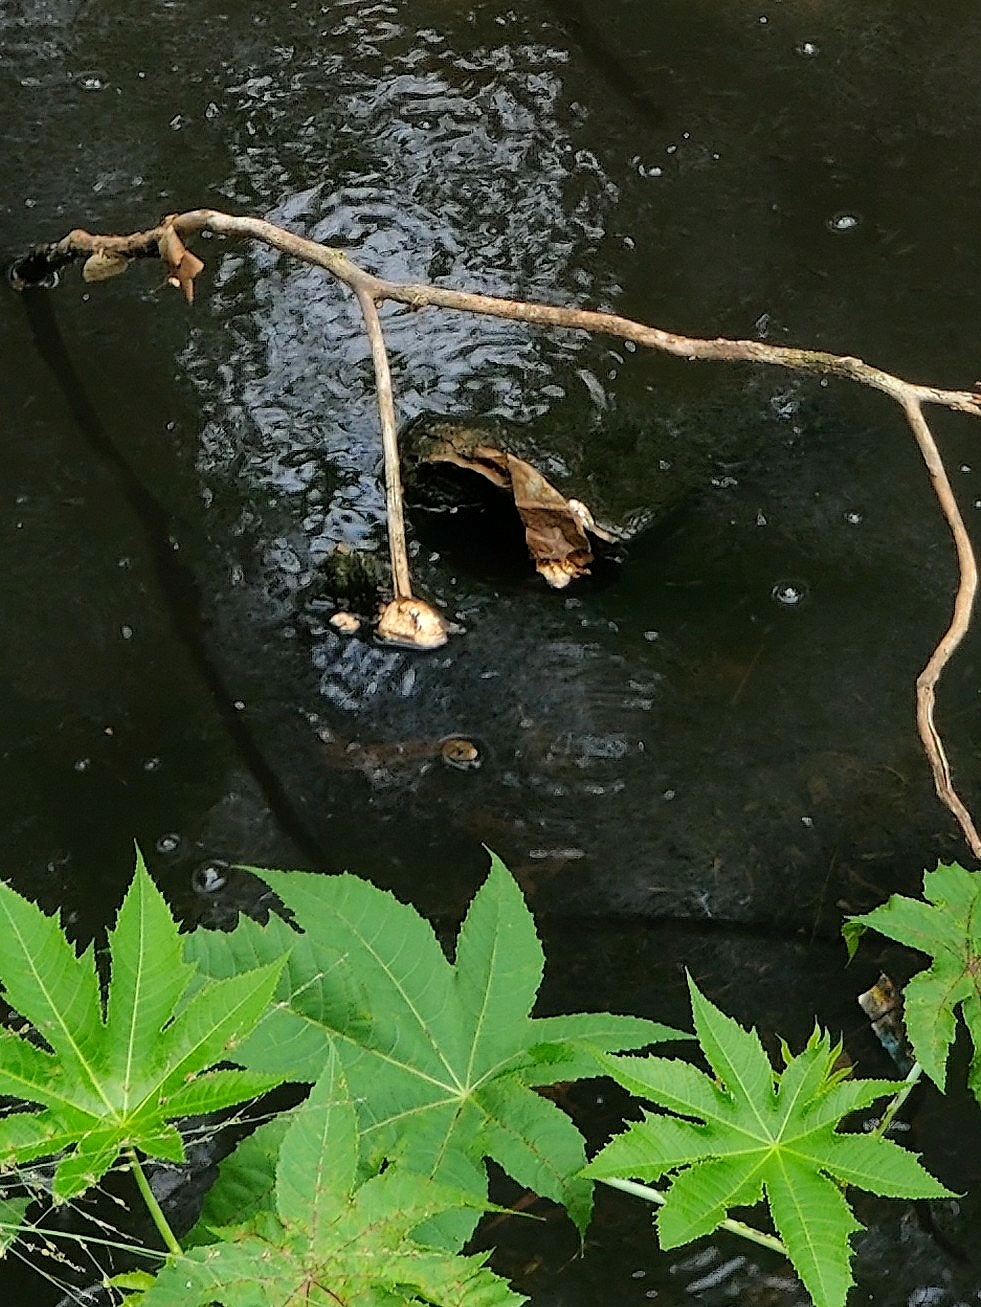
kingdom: Animalia
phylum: Chordata
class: Squamata
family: Colubridae
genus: Fowlea
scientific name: Fowlea piscator
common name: Asiatic water snake
